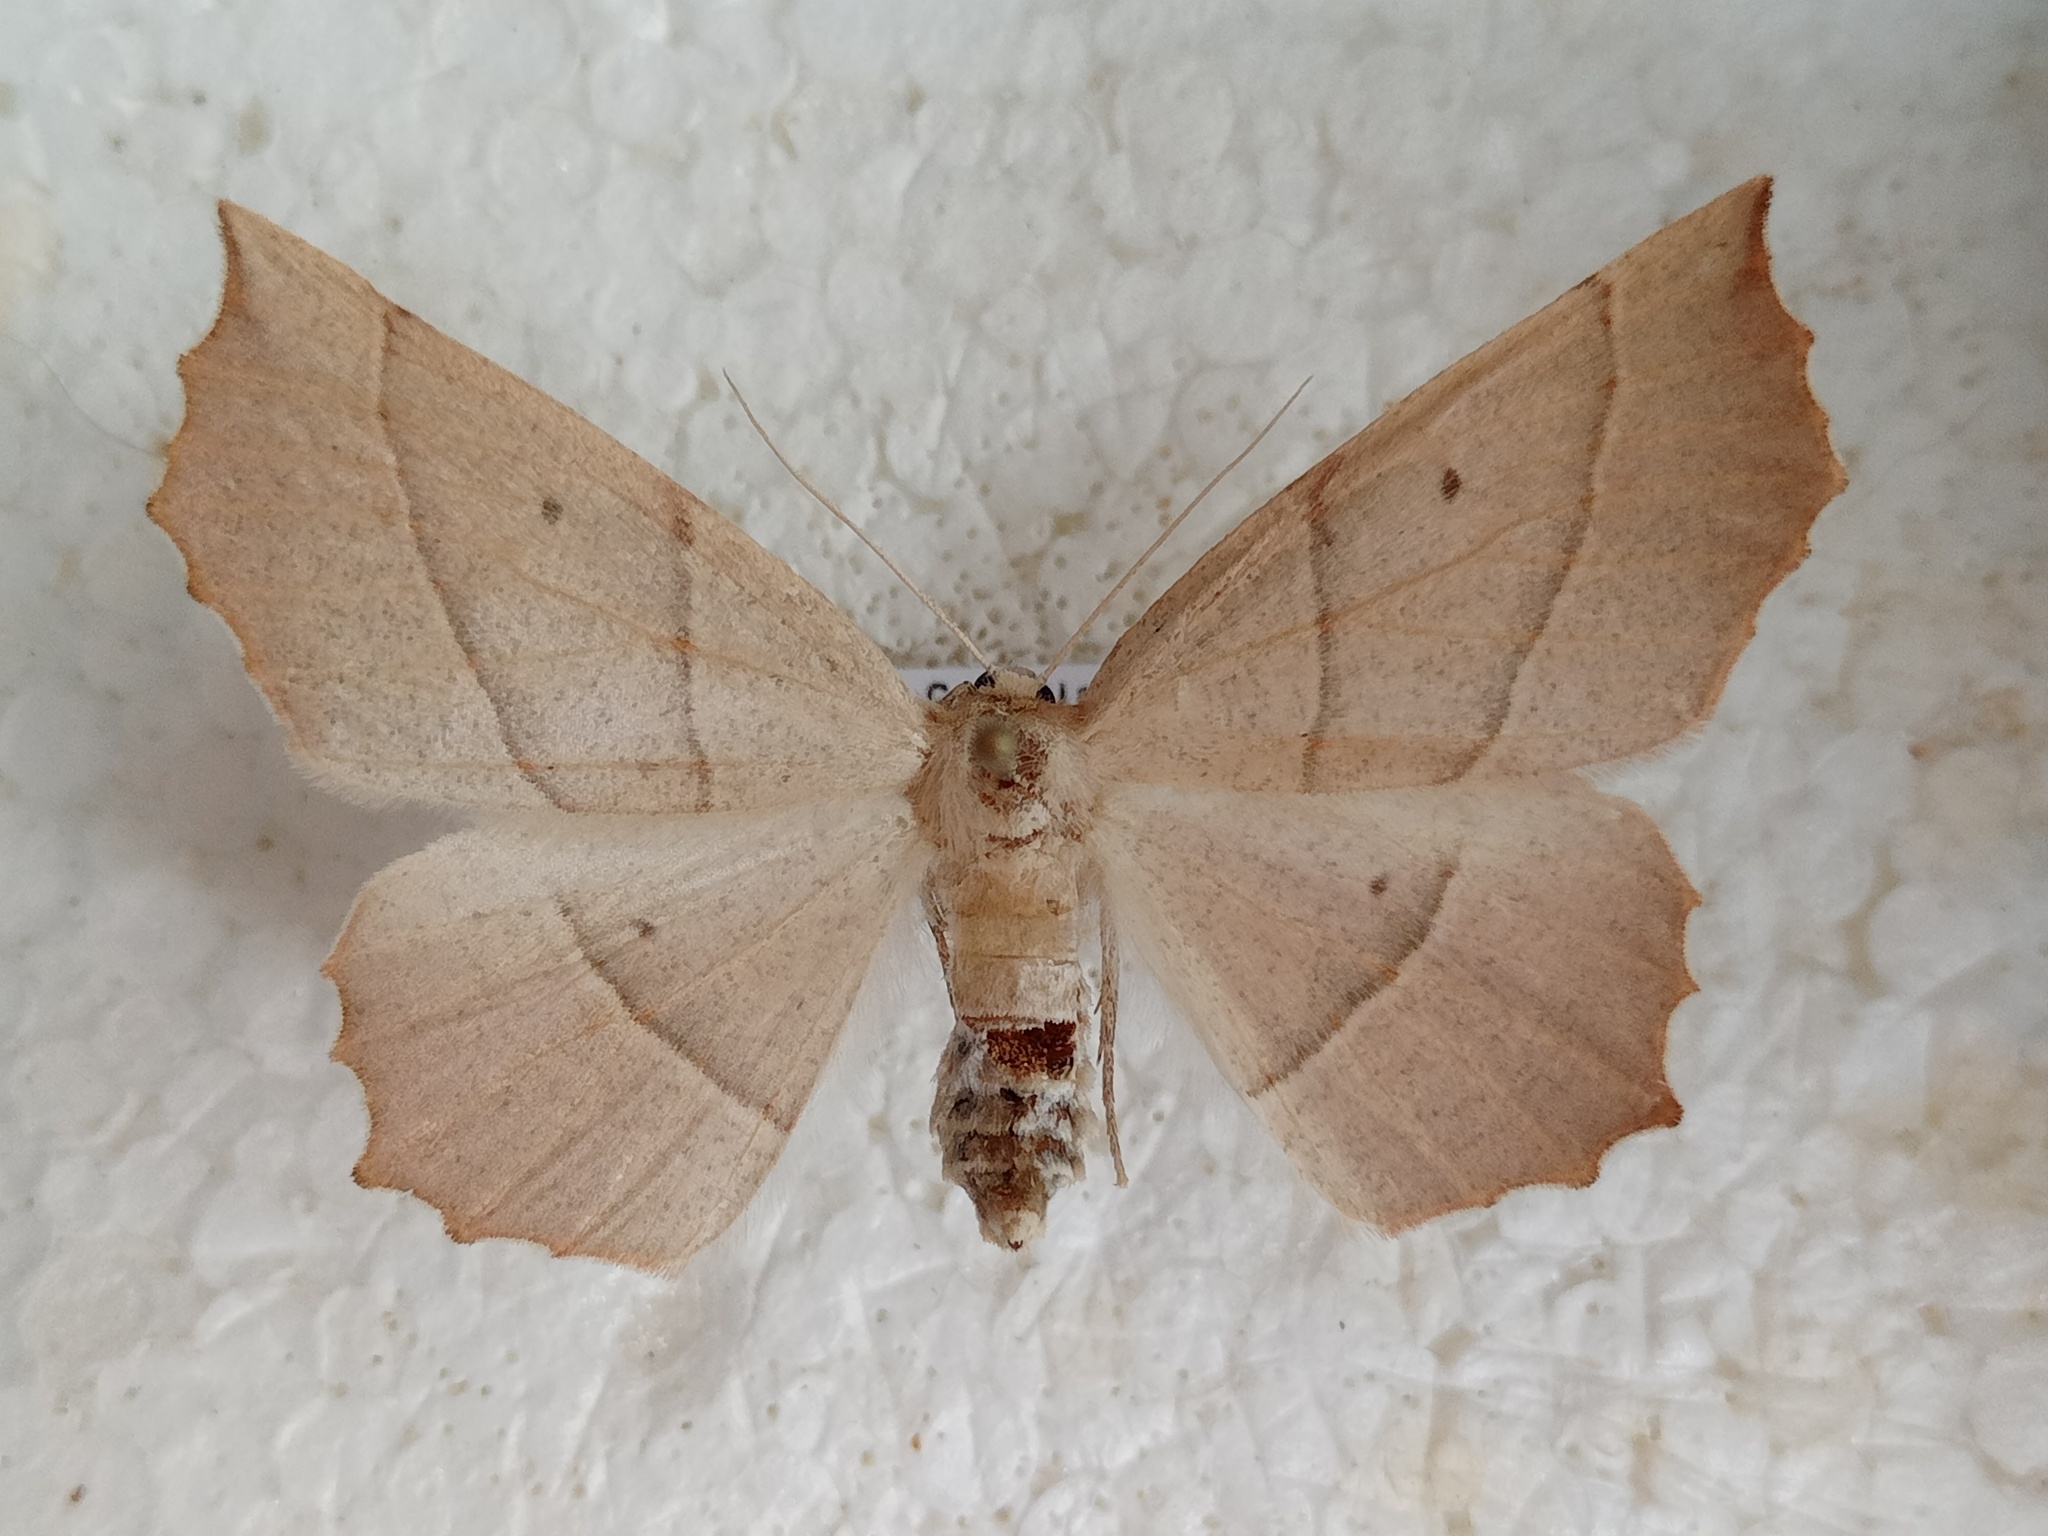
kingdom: Animalia
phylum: Arthropoda
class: Insecta
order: Lepidoptera
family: Geometridae
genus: Gerinia
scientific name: Gerinia honoraria
